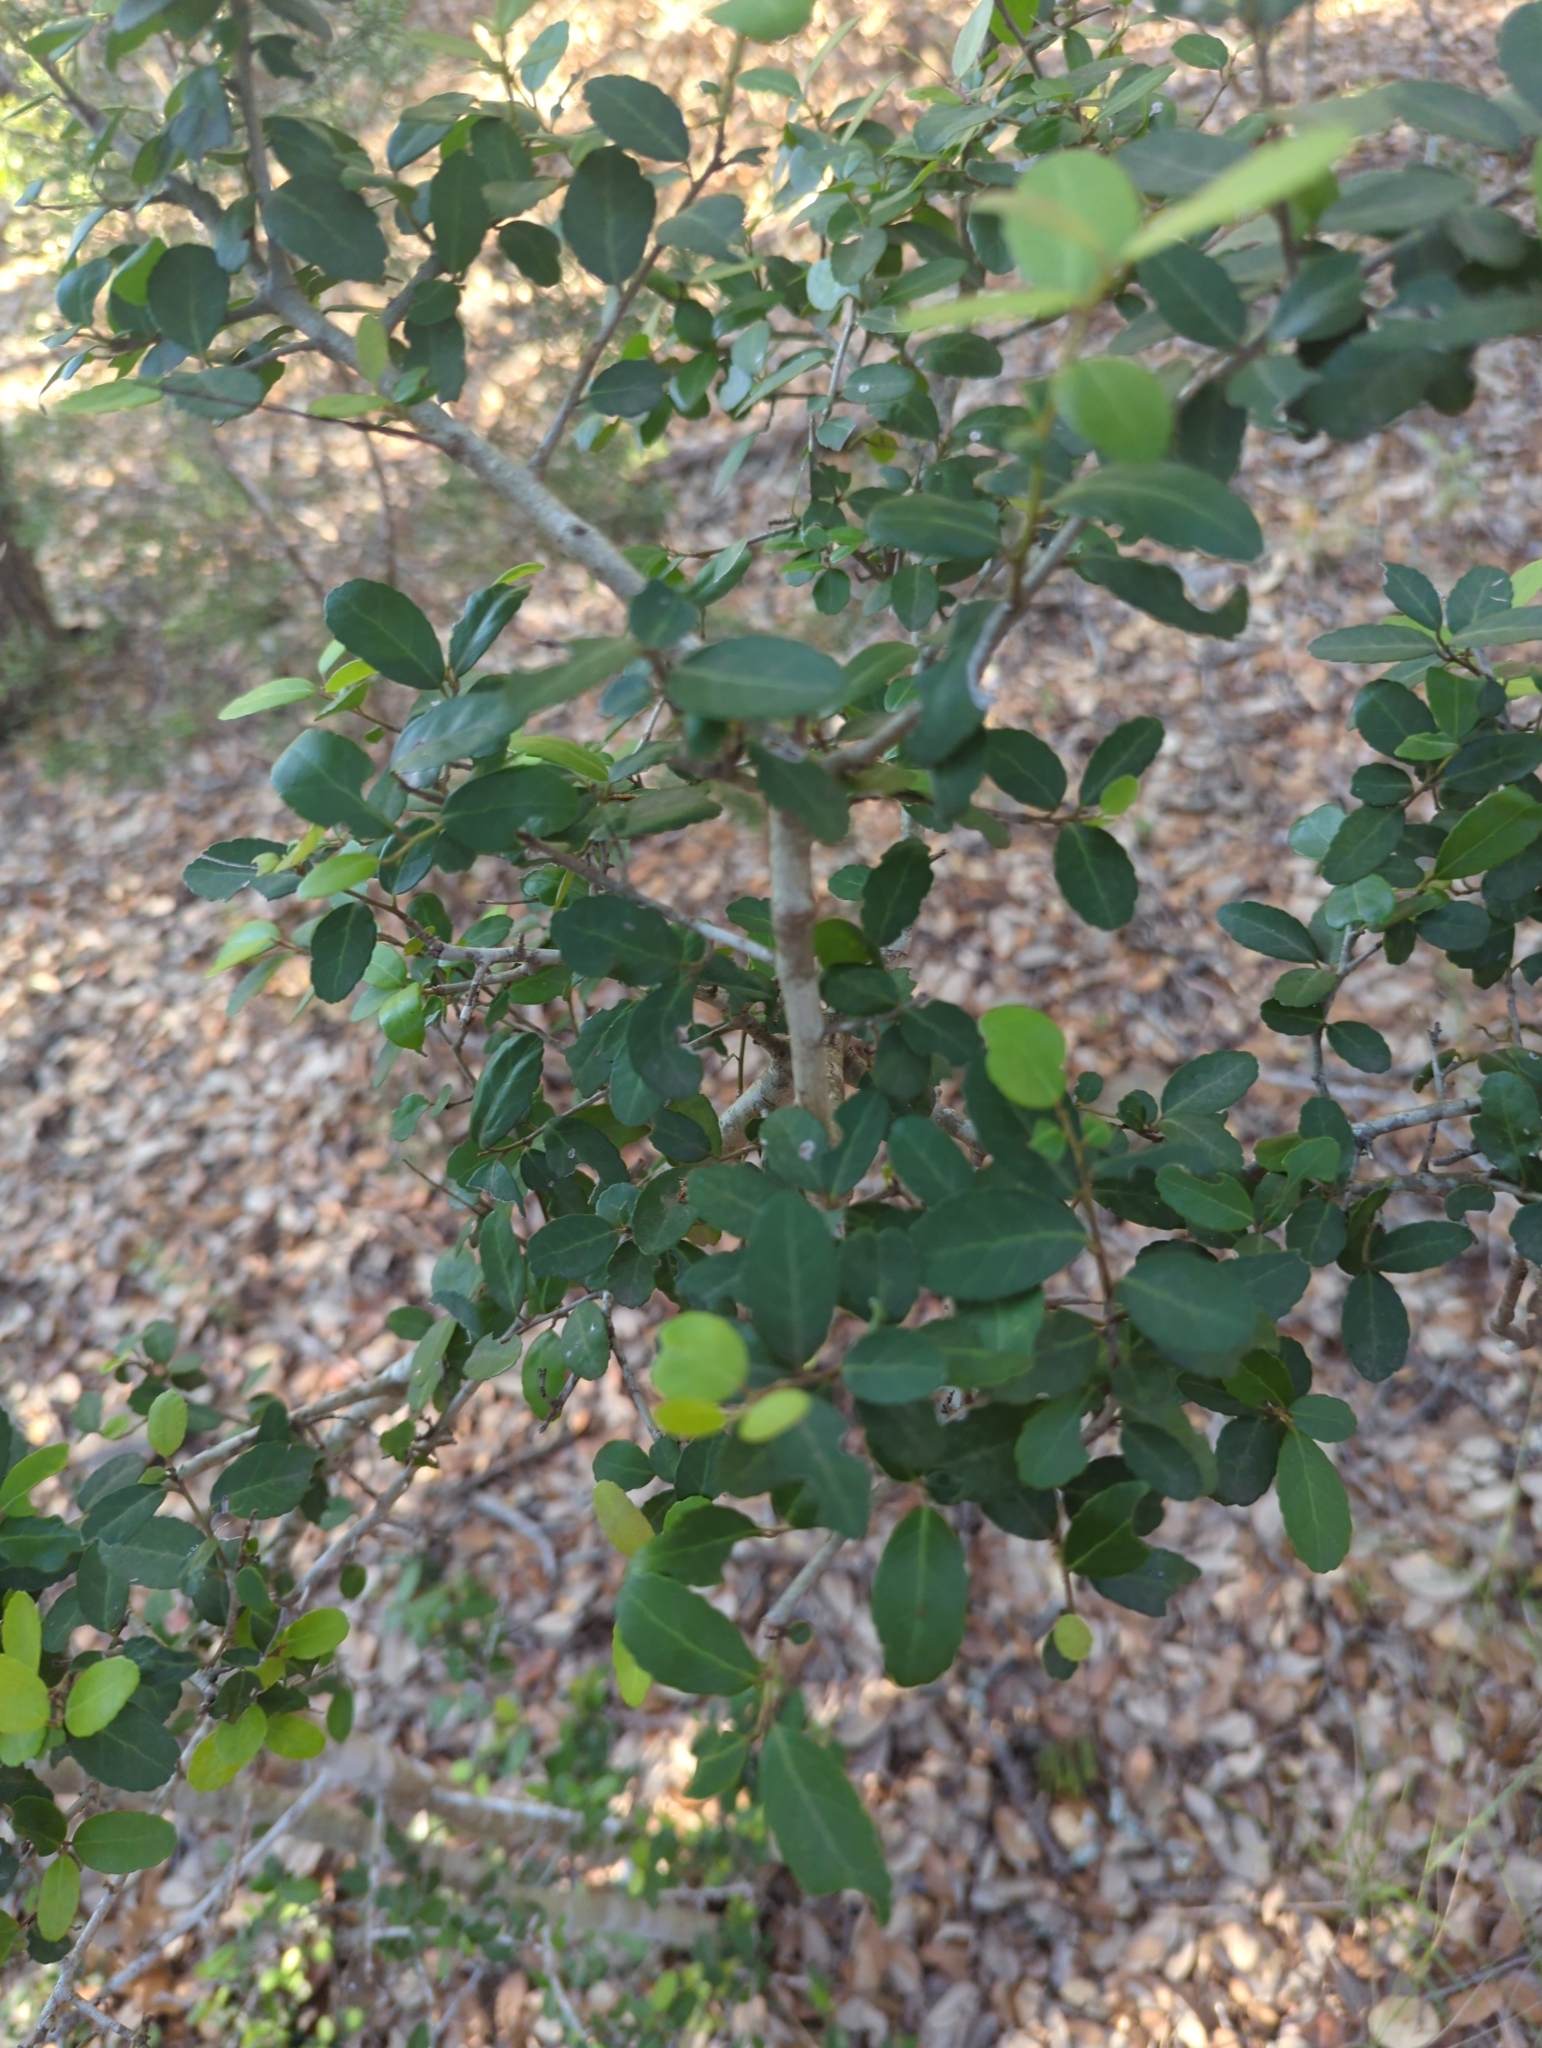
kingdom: Plantae
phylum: Tracheophyta
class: Magnoliopsida
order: Aquifoliales
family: Aquifoliaceae
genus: Ilex
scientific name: Ilex vomitoria
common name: Yaupon holly
